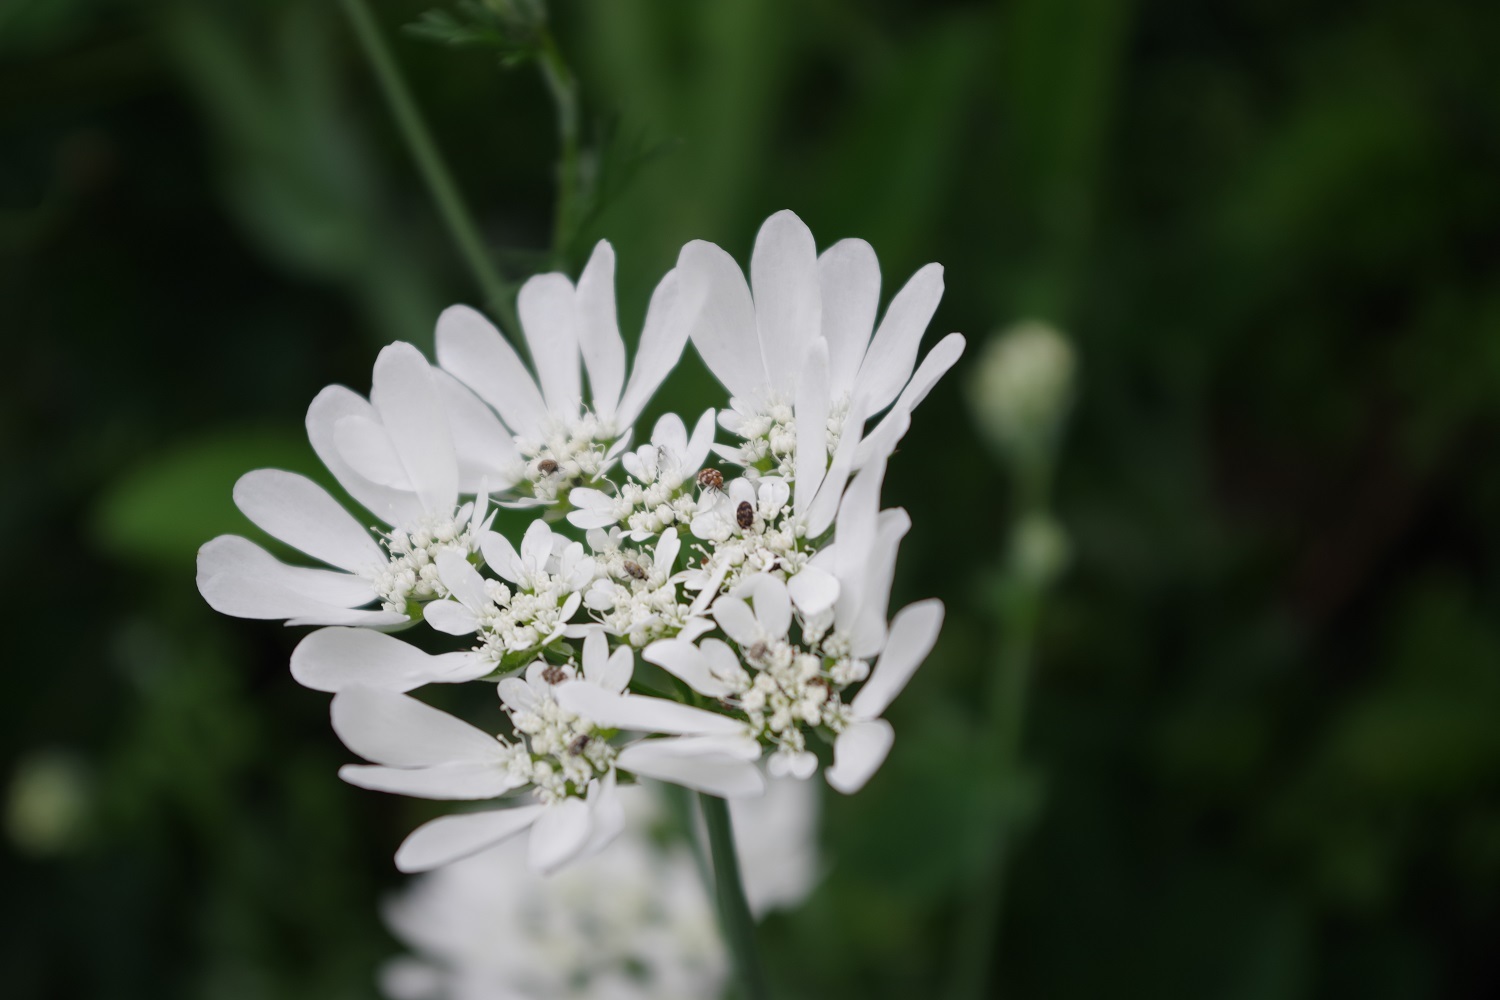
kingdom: Plantae
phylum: Tracheophyta
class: Magnoliopsida
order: Apiales
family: Apiaceae
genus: Orlaya
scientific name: Orlaya grandiflora
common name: White lace flower
